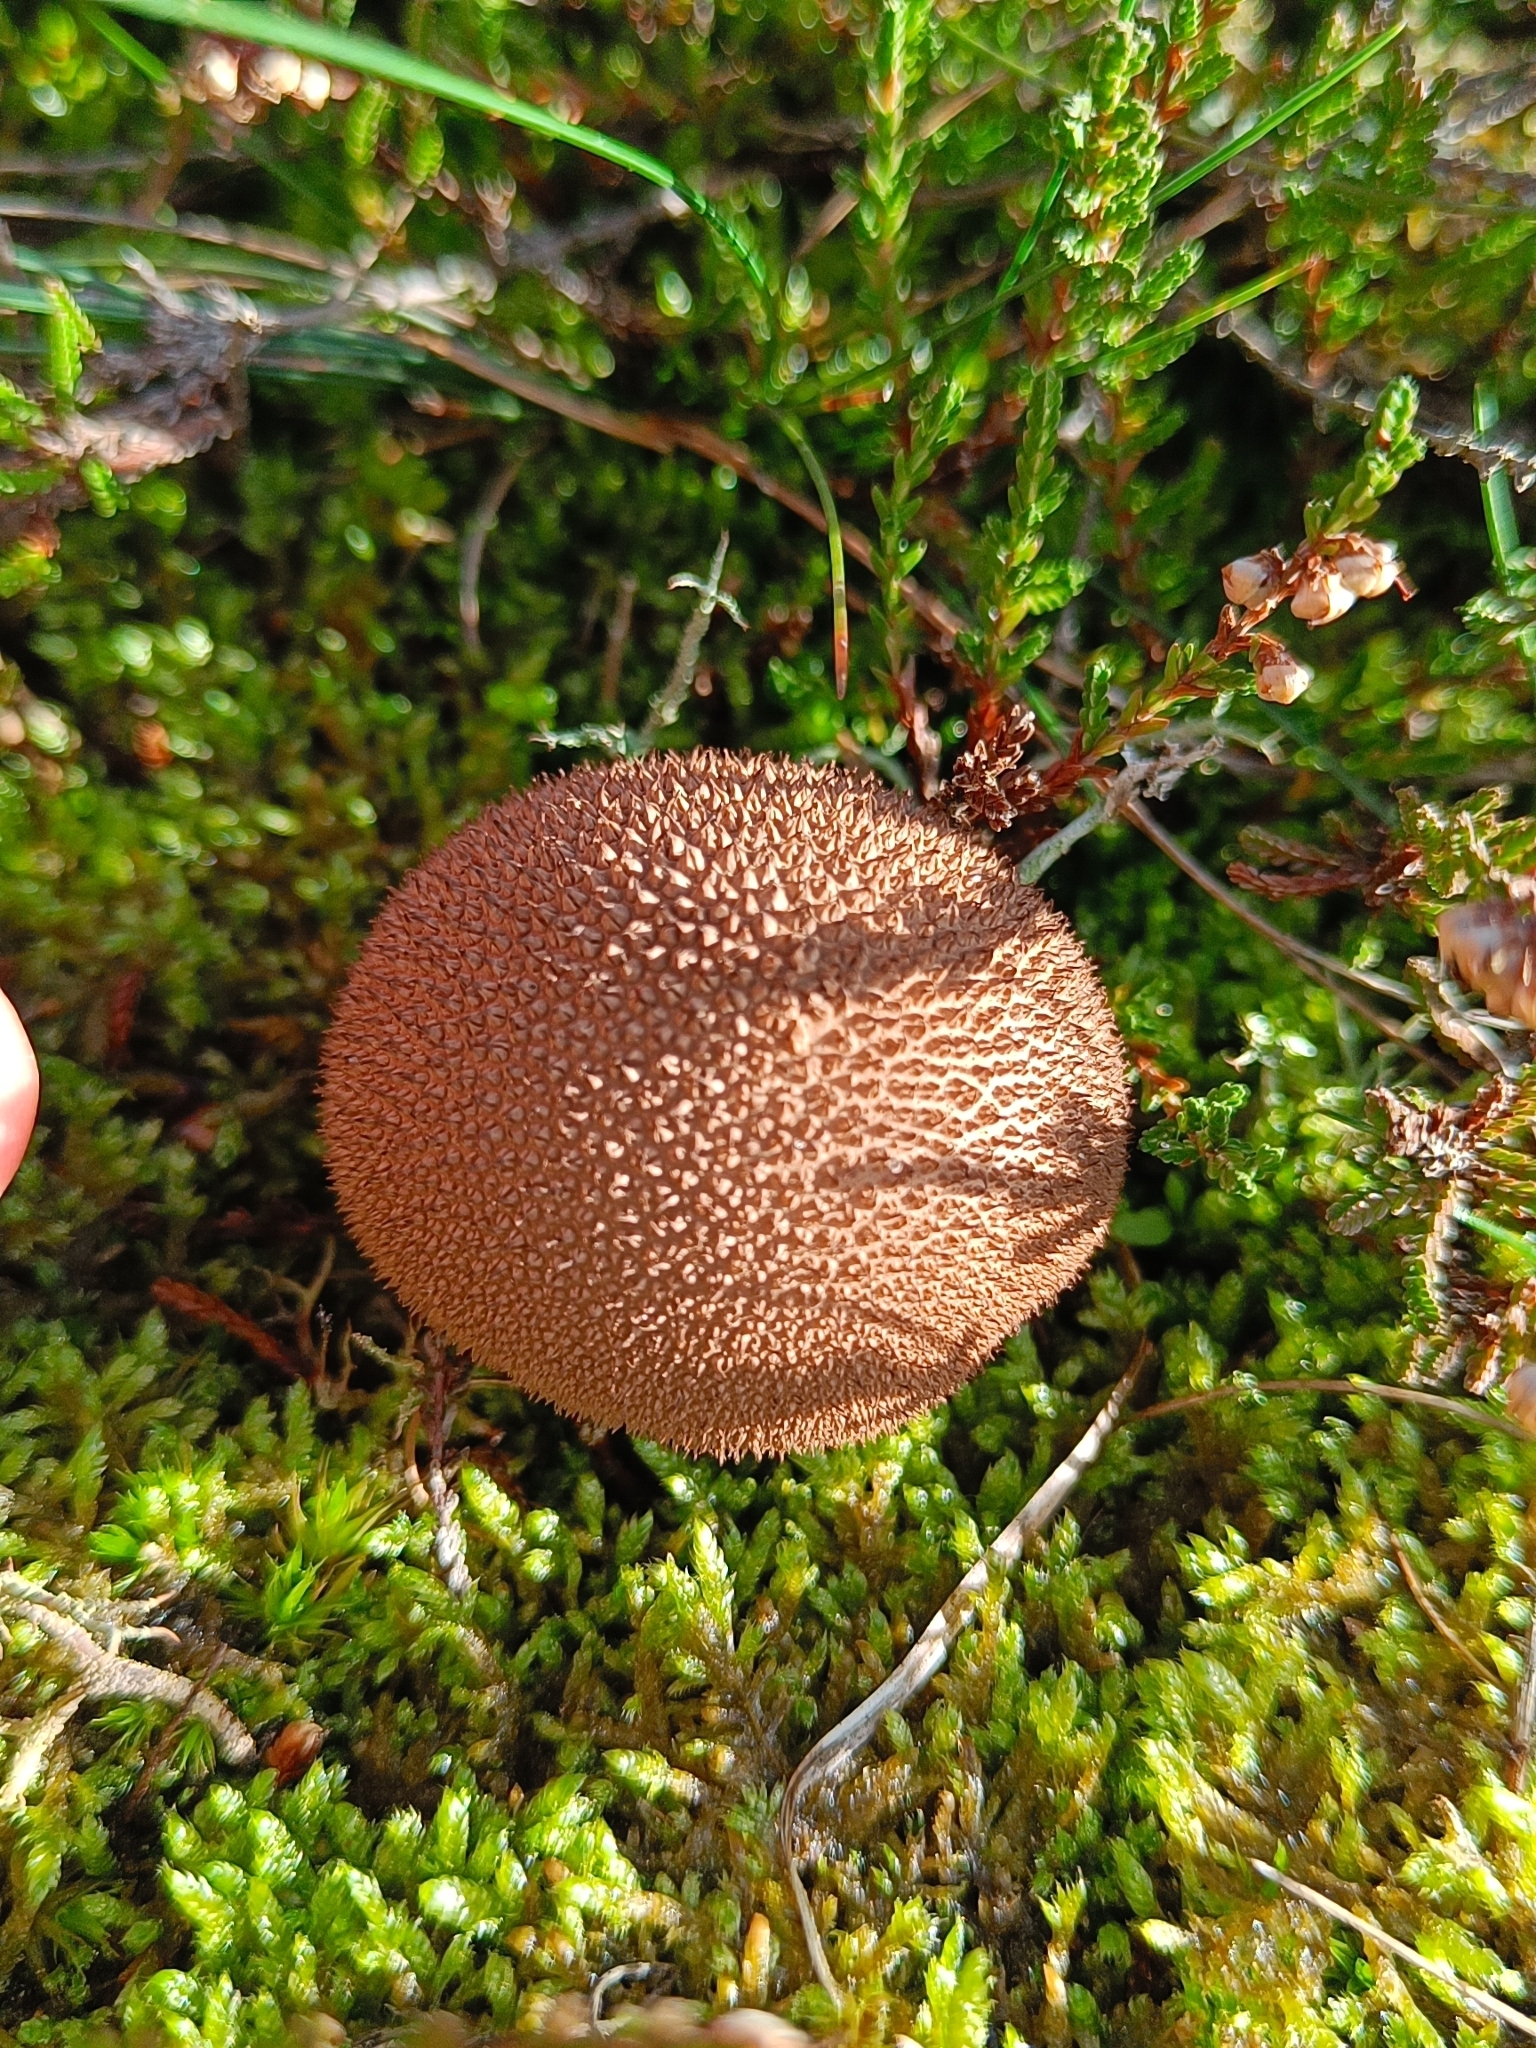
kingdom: Fungi
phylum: Basidiomycota
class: Agaricomycetes
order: Agaricales
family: Lycoperdaceae
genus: Lycoperdon
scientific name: Lycoperdon nigrescens
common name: Blackish puffball
